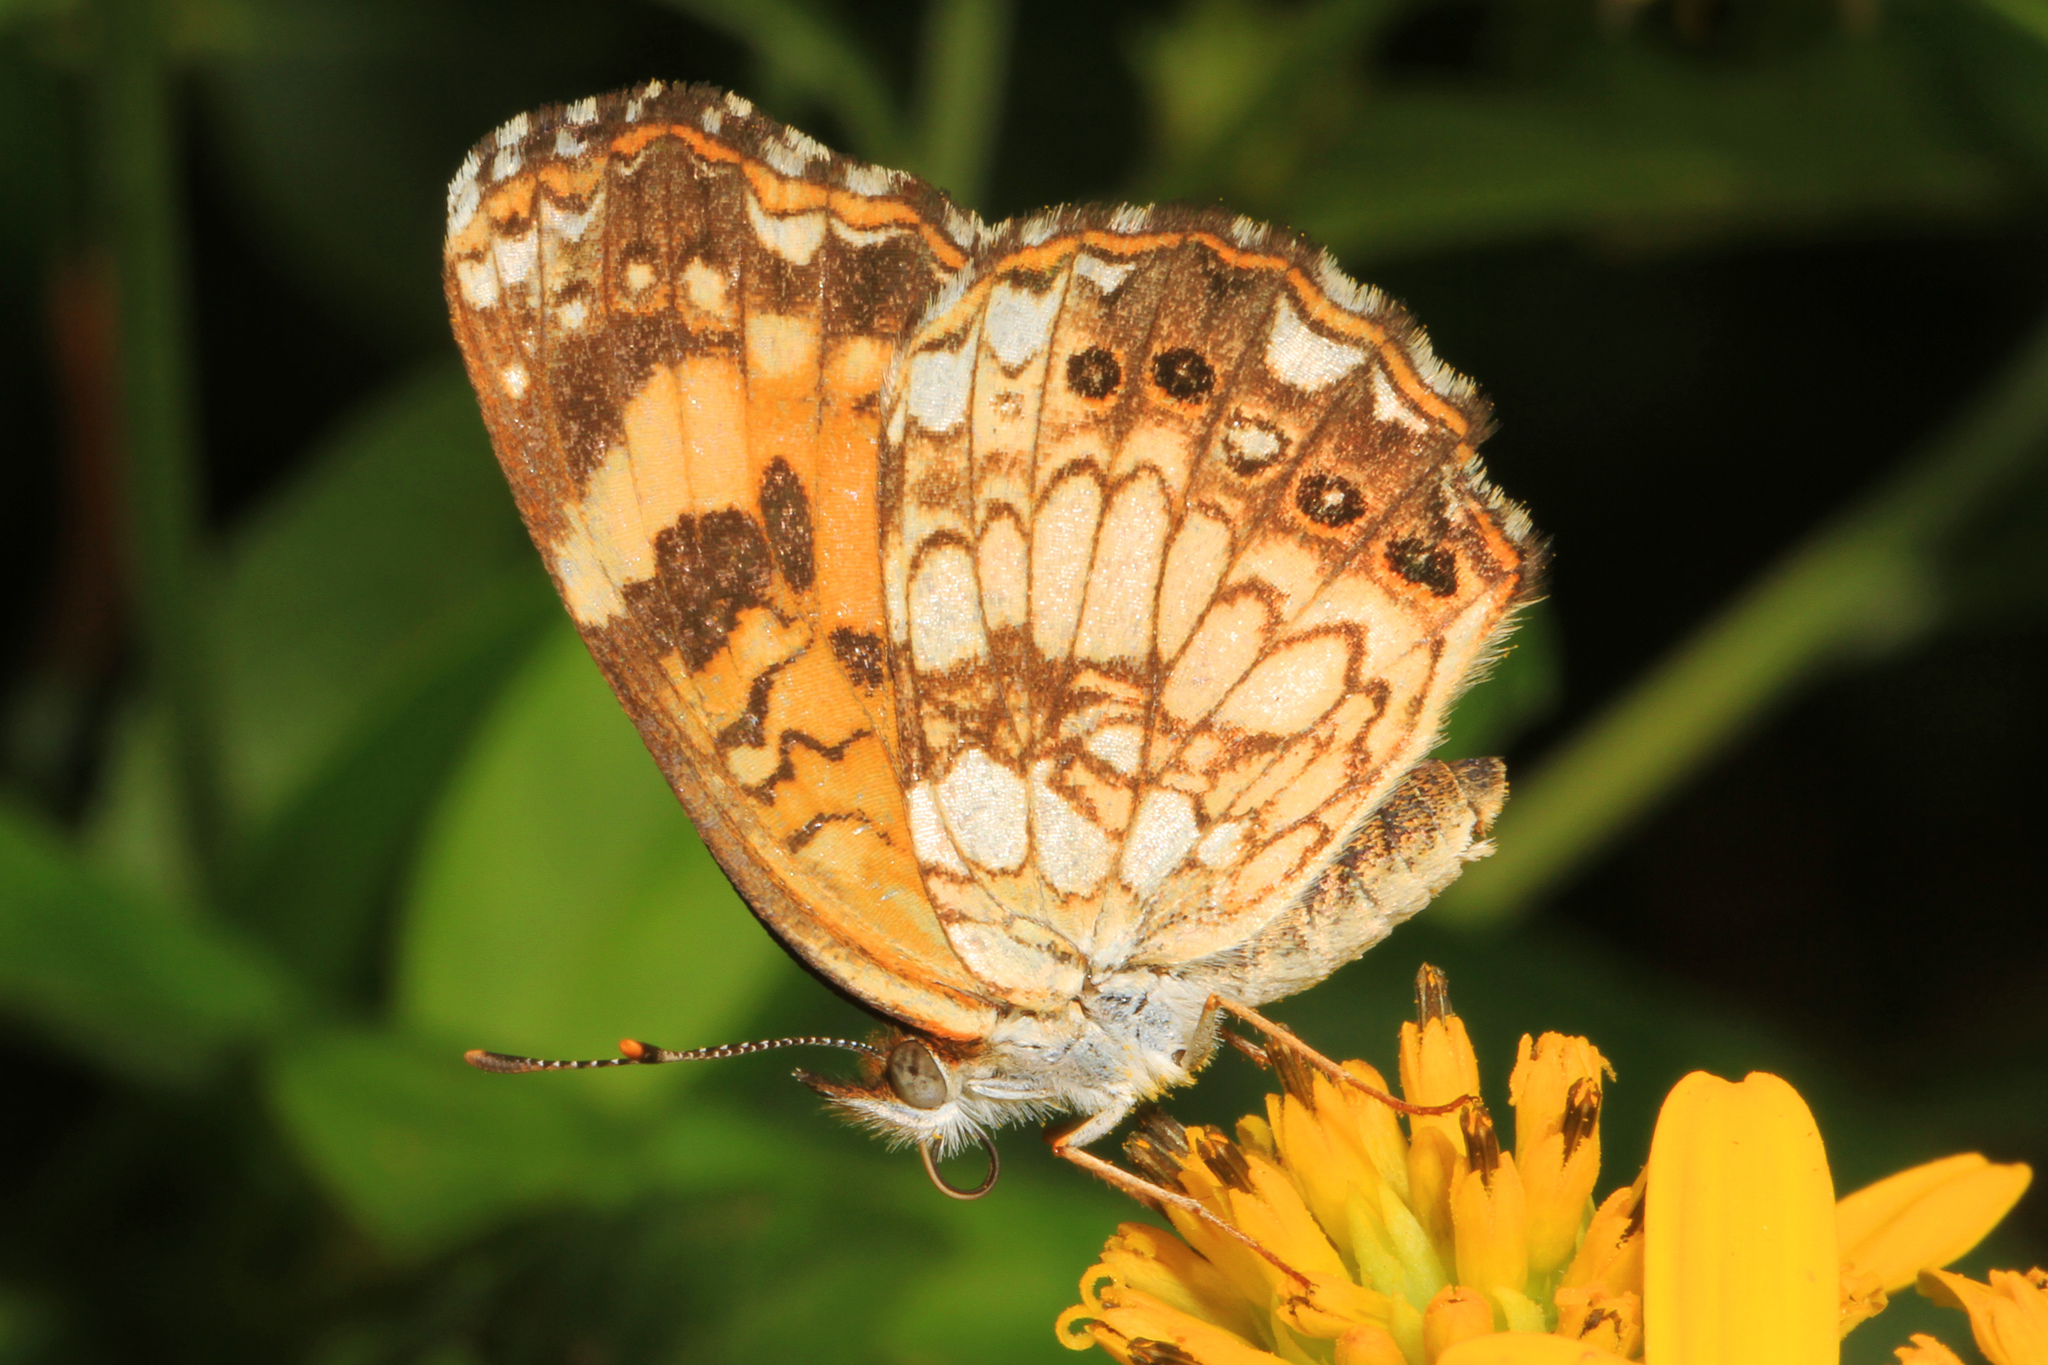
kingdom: Animalia
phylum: Arthropoda
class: Insecta
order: Lepidoptera
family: Nymphalidae
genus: Chlosyne
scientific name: Chlosyne nycteis
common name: Silvery checkerspot
